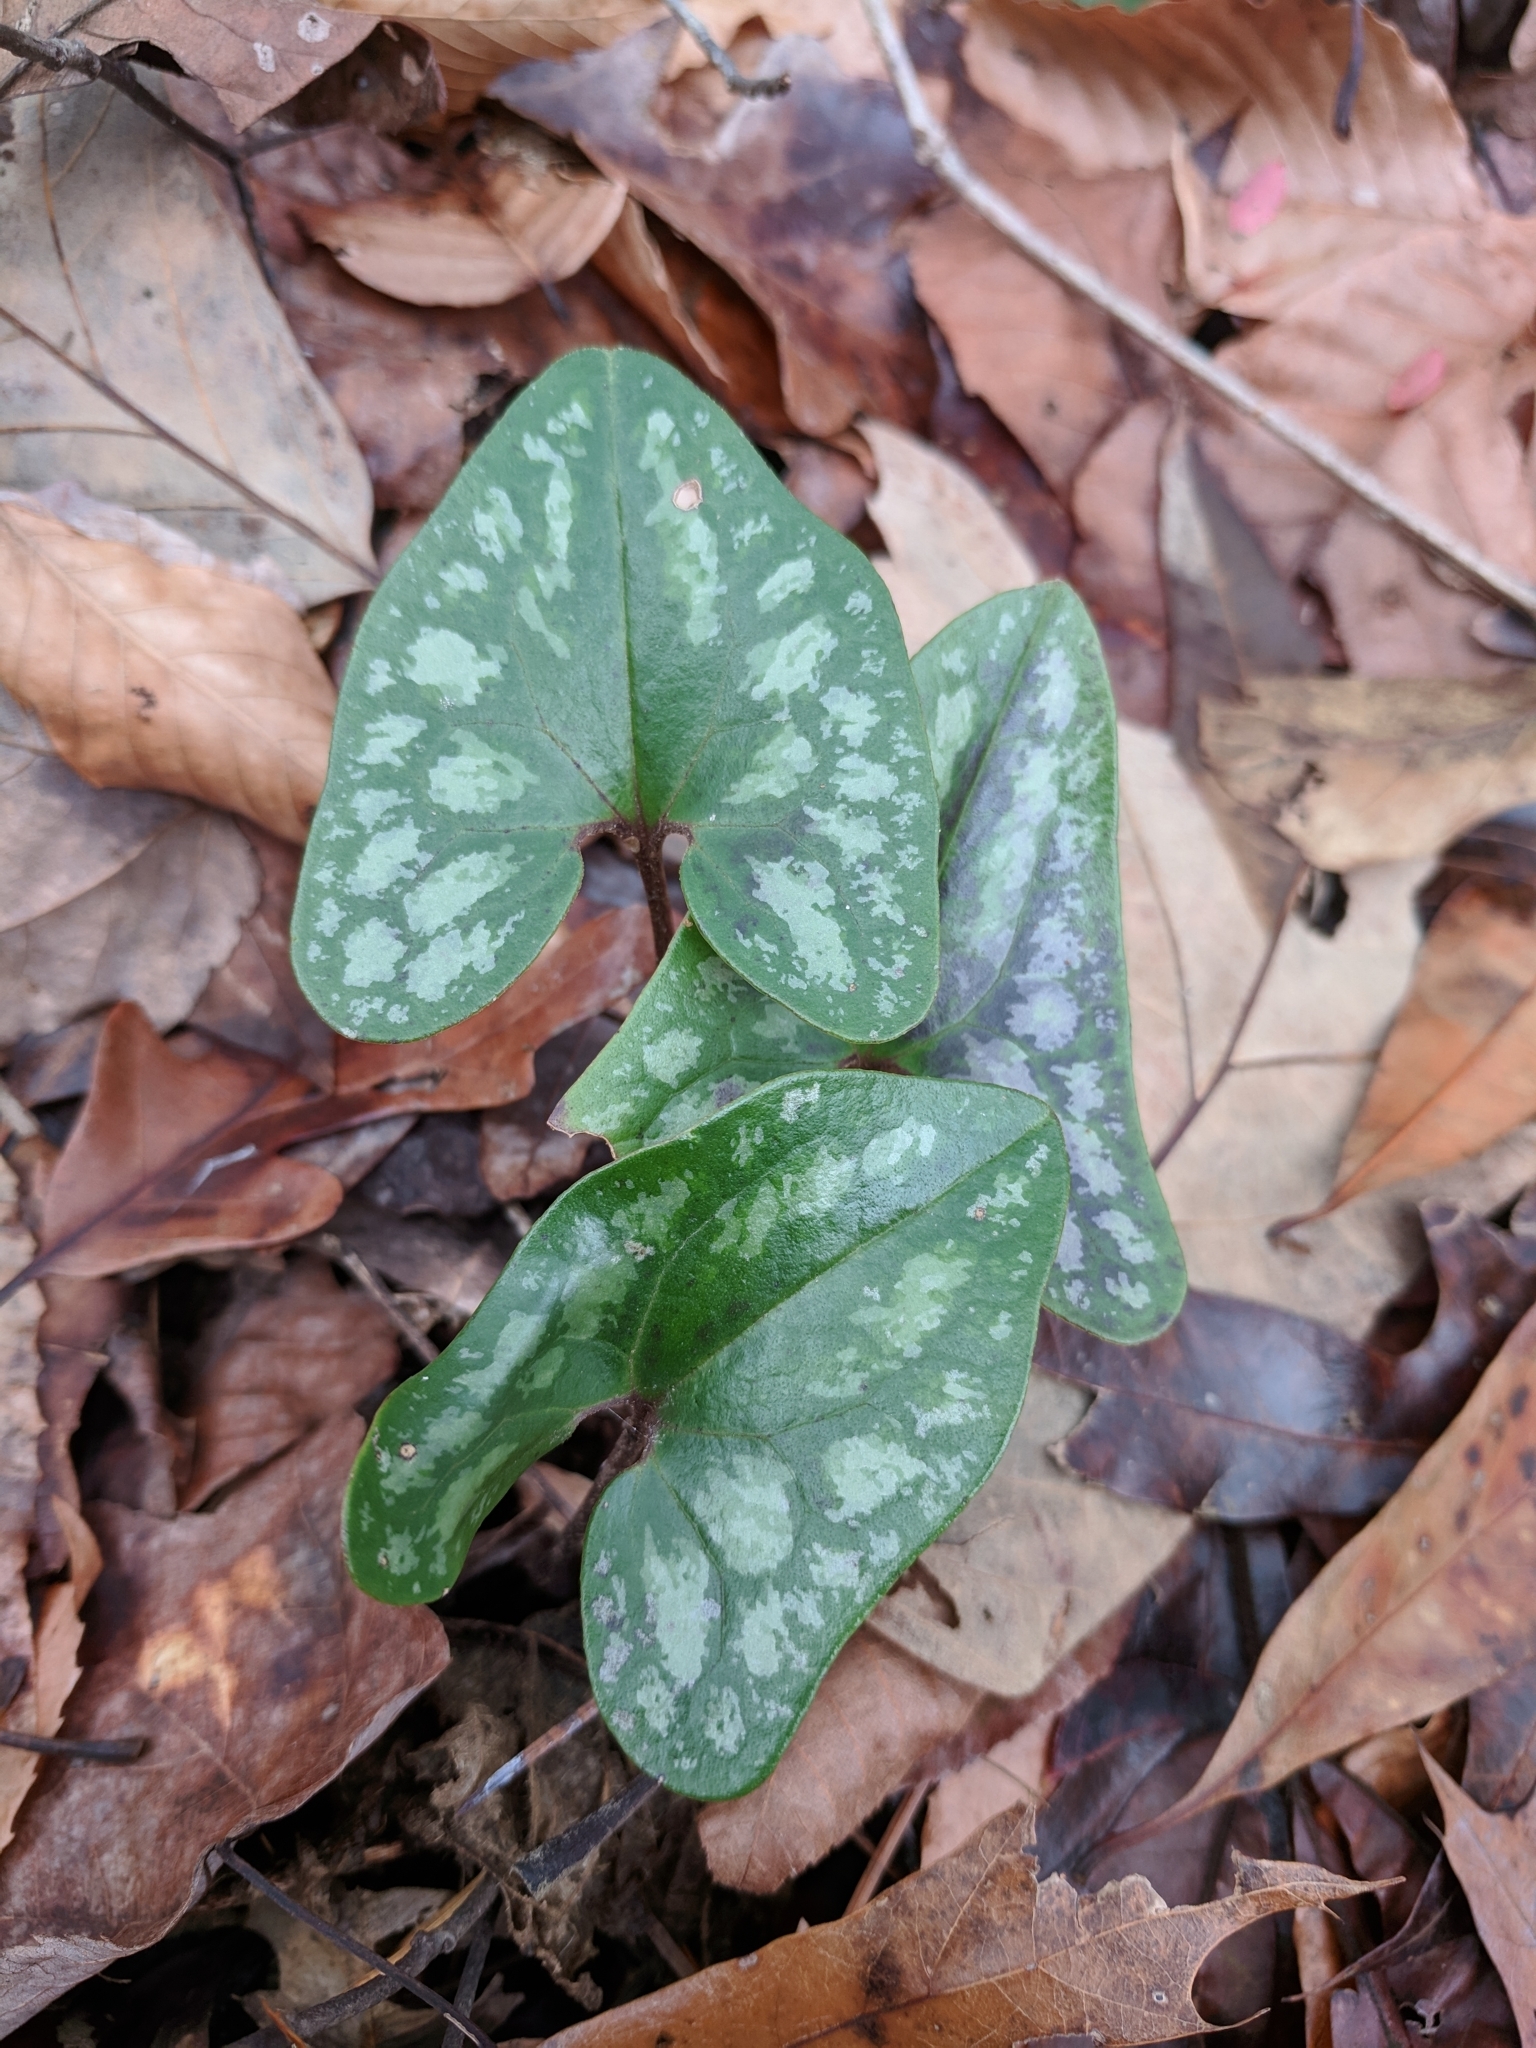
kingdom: Plantae
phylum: Tracheophyta
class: Magnoliopsida
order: Piperales
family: Aristolochiaceae
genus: Hexastylis
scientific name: Hexastylis arifolia
